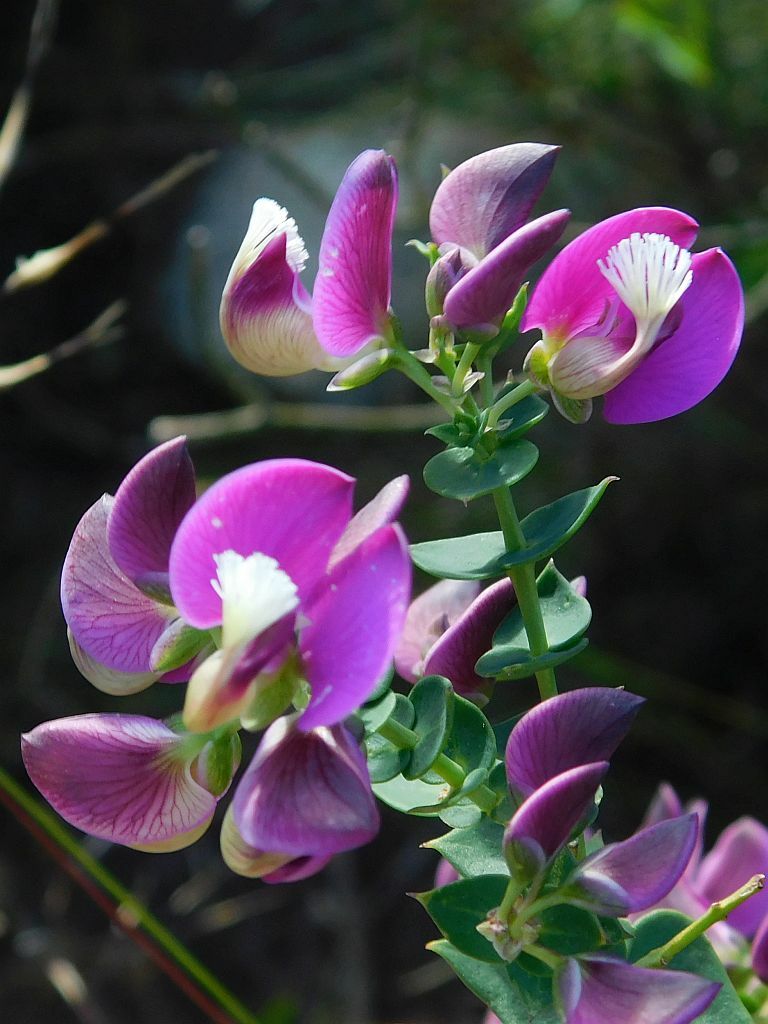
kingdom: Plantae
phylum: Tracheophyta
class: Magnoliopsida
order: Fabales
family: Polygalaceae
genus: Polygala
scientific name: Polygala fruticosa
